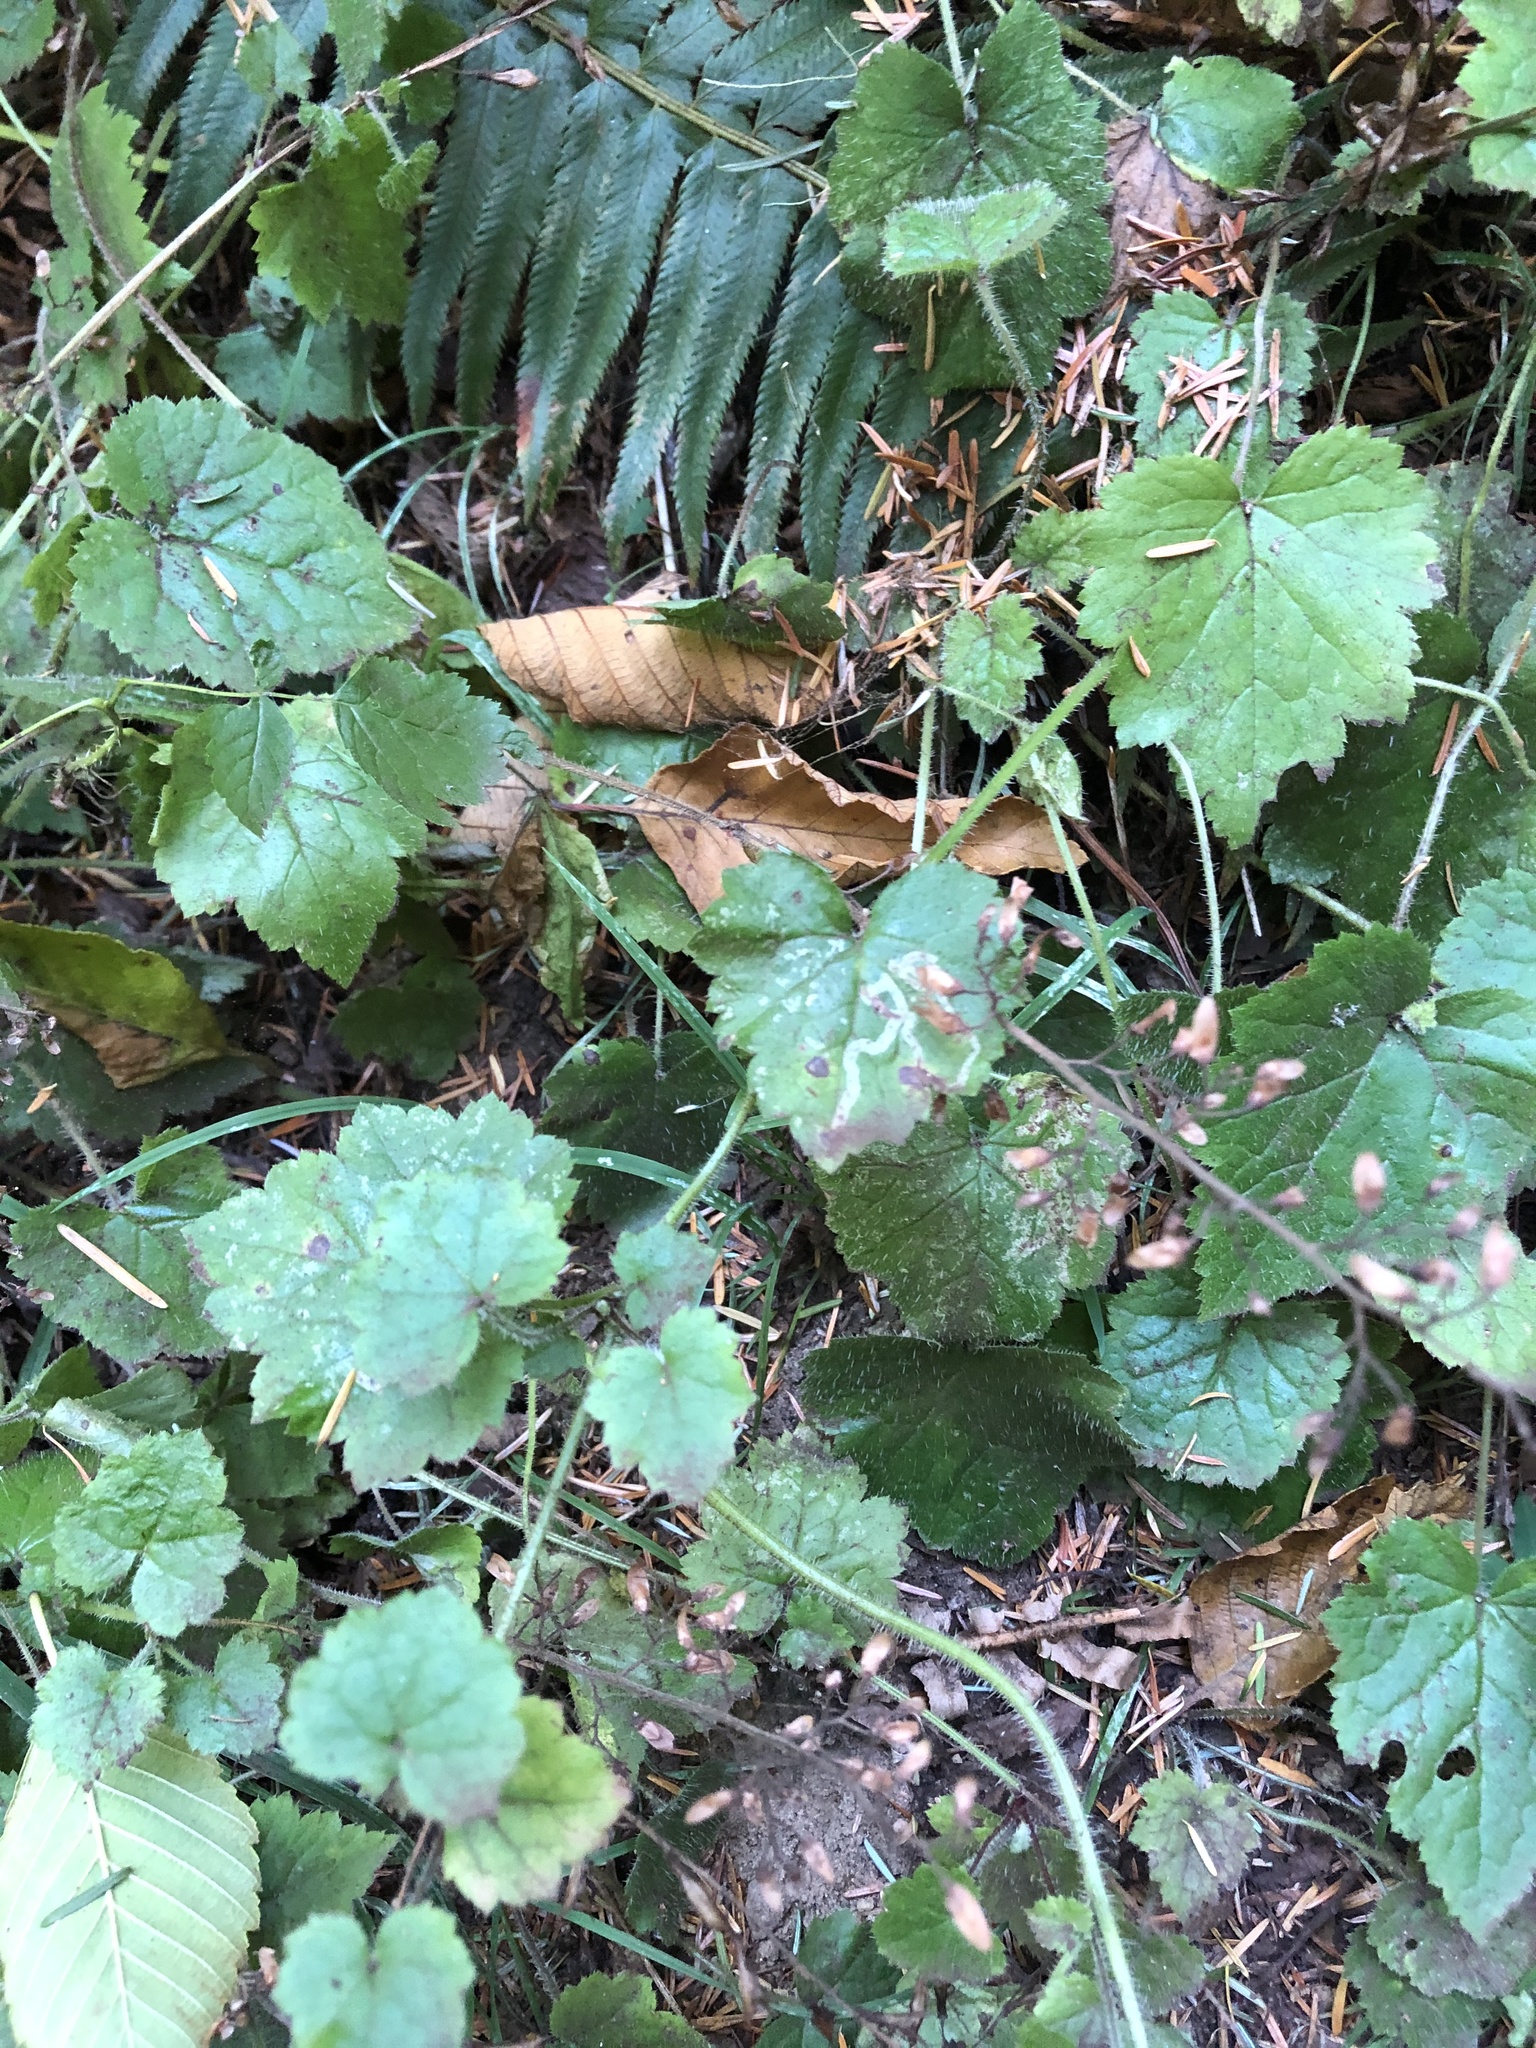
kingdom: Animalia
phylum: Arthropoda
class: Insecta
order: Diptera
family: Agromyzidae
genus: Phytomyza
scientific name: Phytomyza tiarellae
